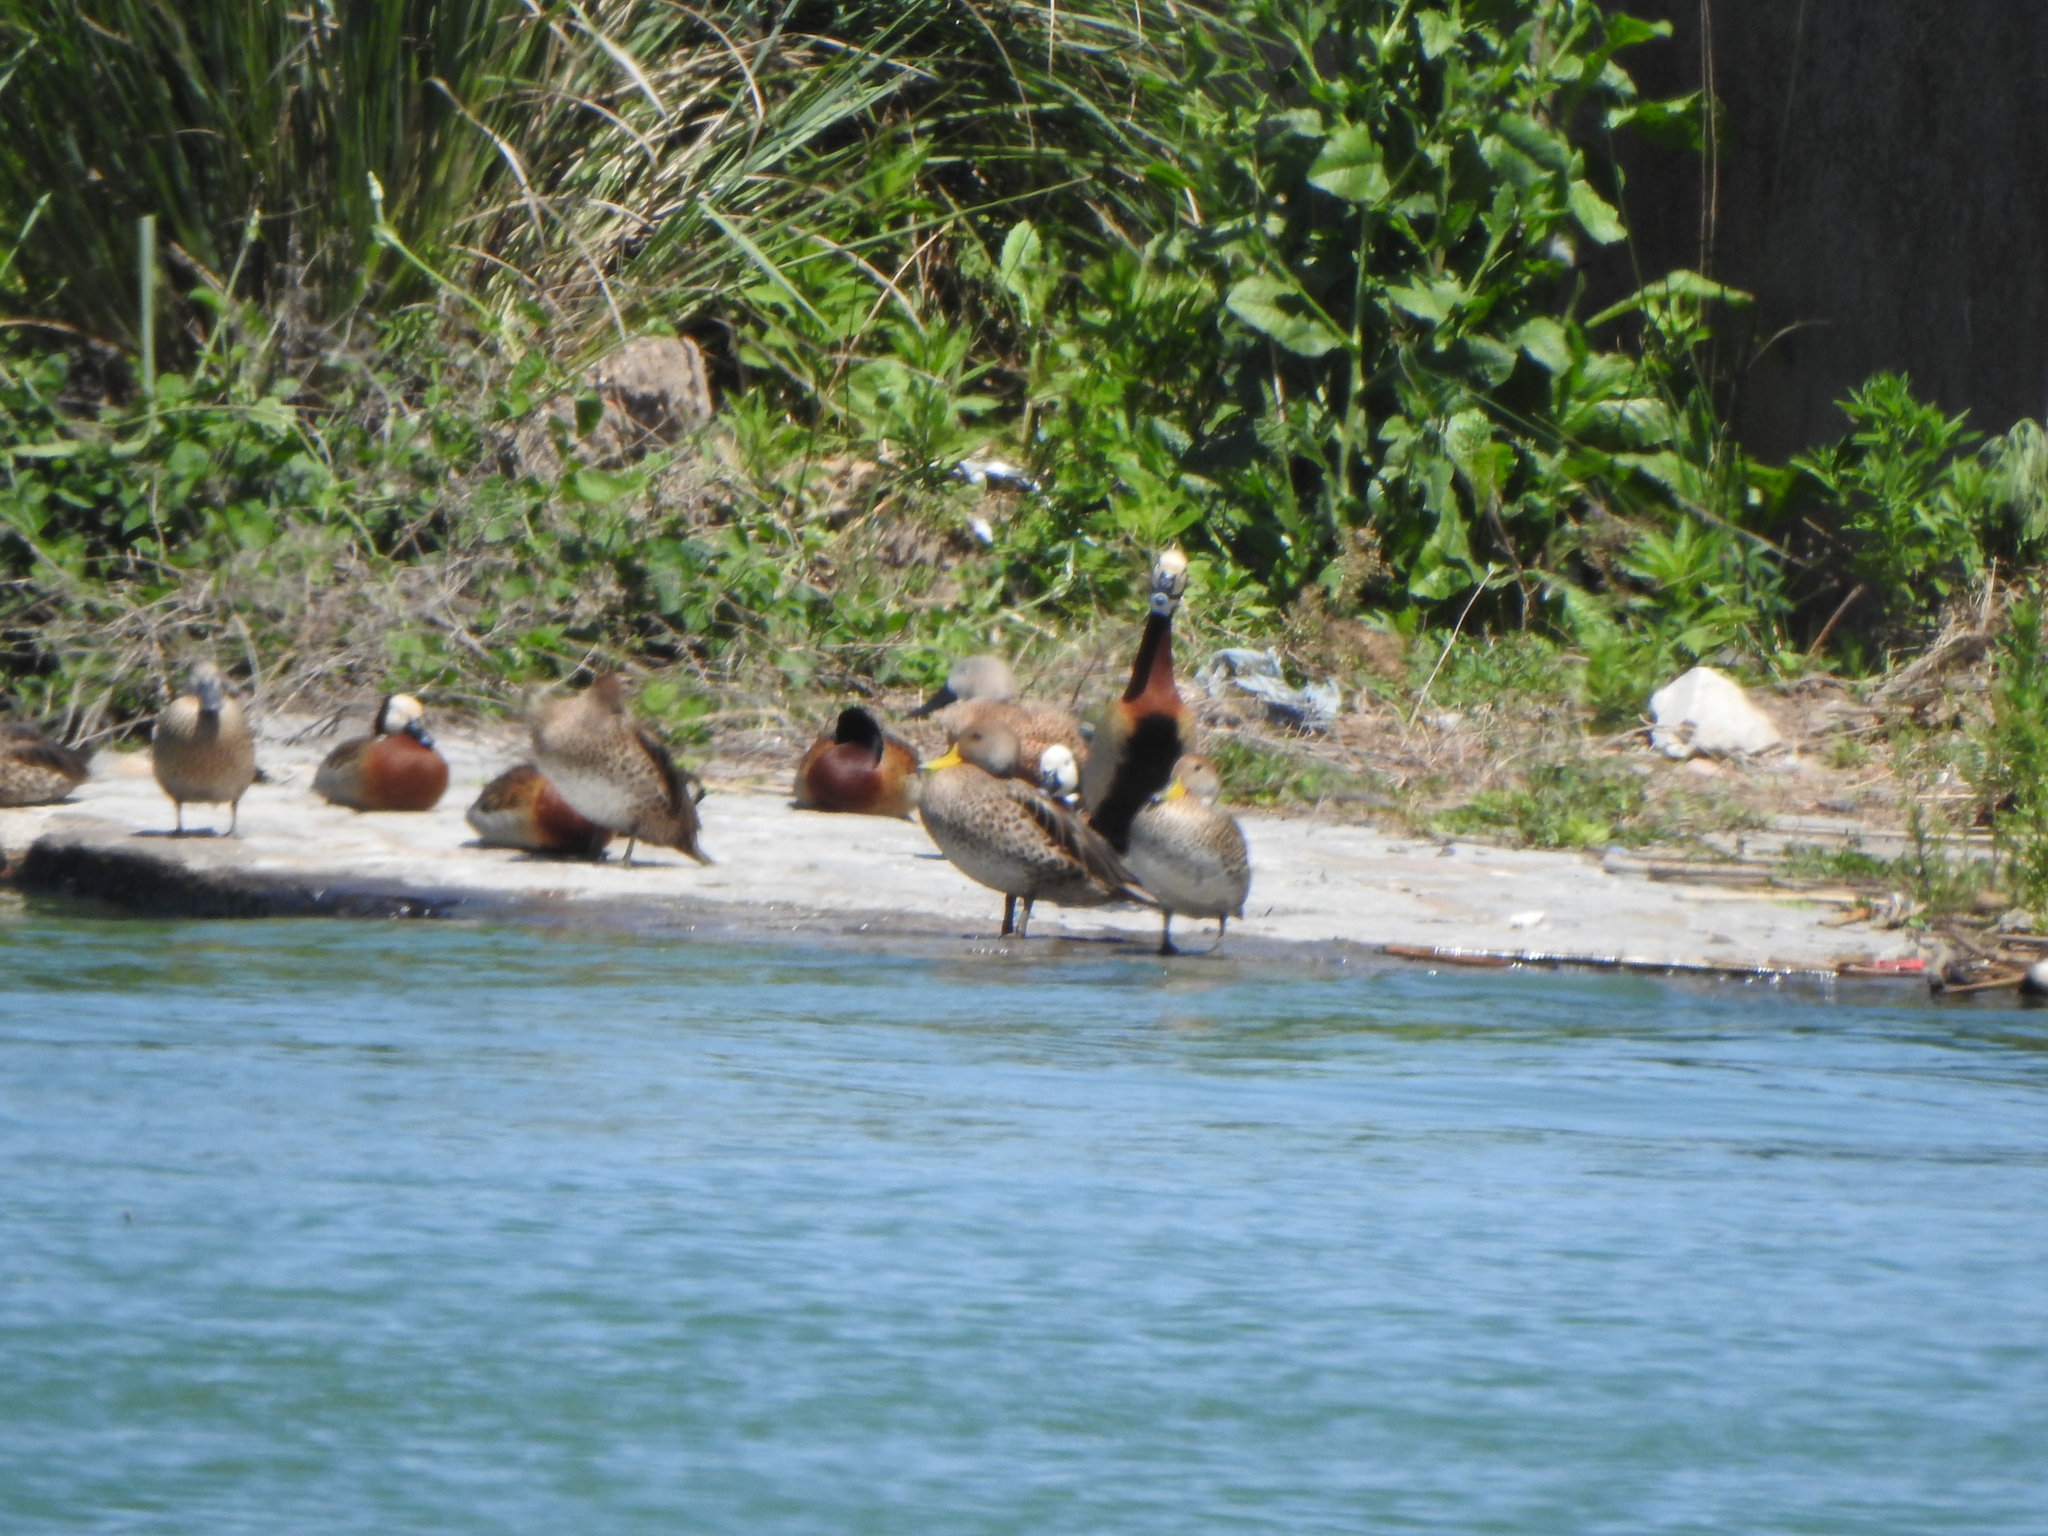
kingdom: Animalia
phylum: Chordata
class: Aves
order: Anseriformes
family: Anatidae
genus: Anas
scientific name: Anas georgica
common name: Yellow-billed pintail
